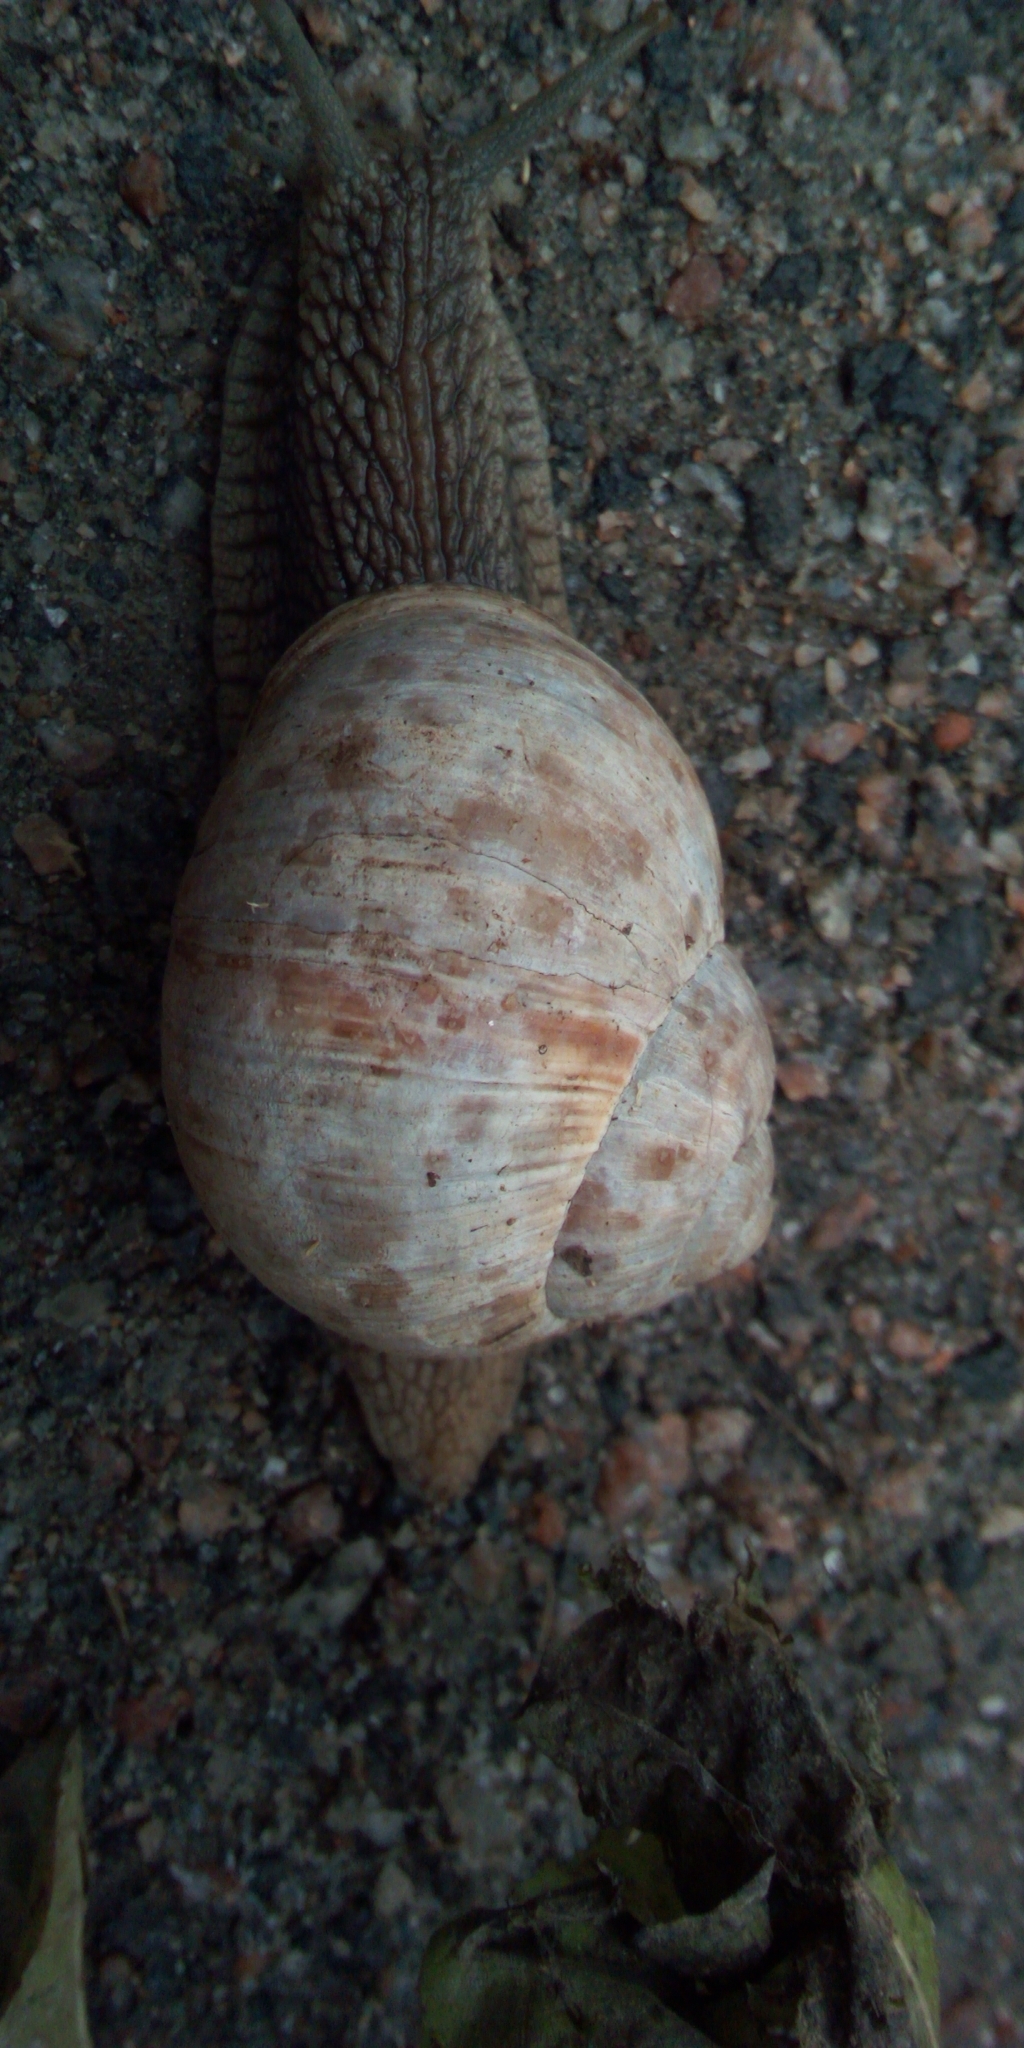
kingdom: Animalia
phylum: Mollusca
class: Gastropoda
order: Stylommatophora
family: Helicidae
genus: Helix
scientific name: Helix pomatia
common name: Roman snail
